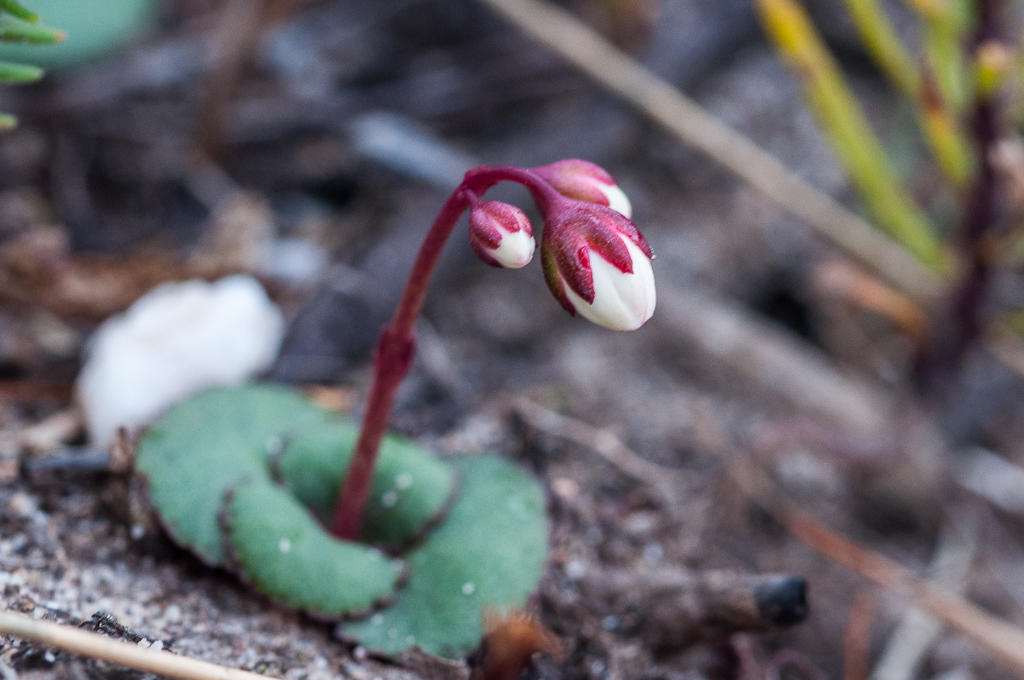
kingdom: Plantae
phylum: Tracheophyta
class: Magnoliopsida
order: Saxifragales
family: Crassulaceae
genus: Crassula
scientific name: Crassula capensis
